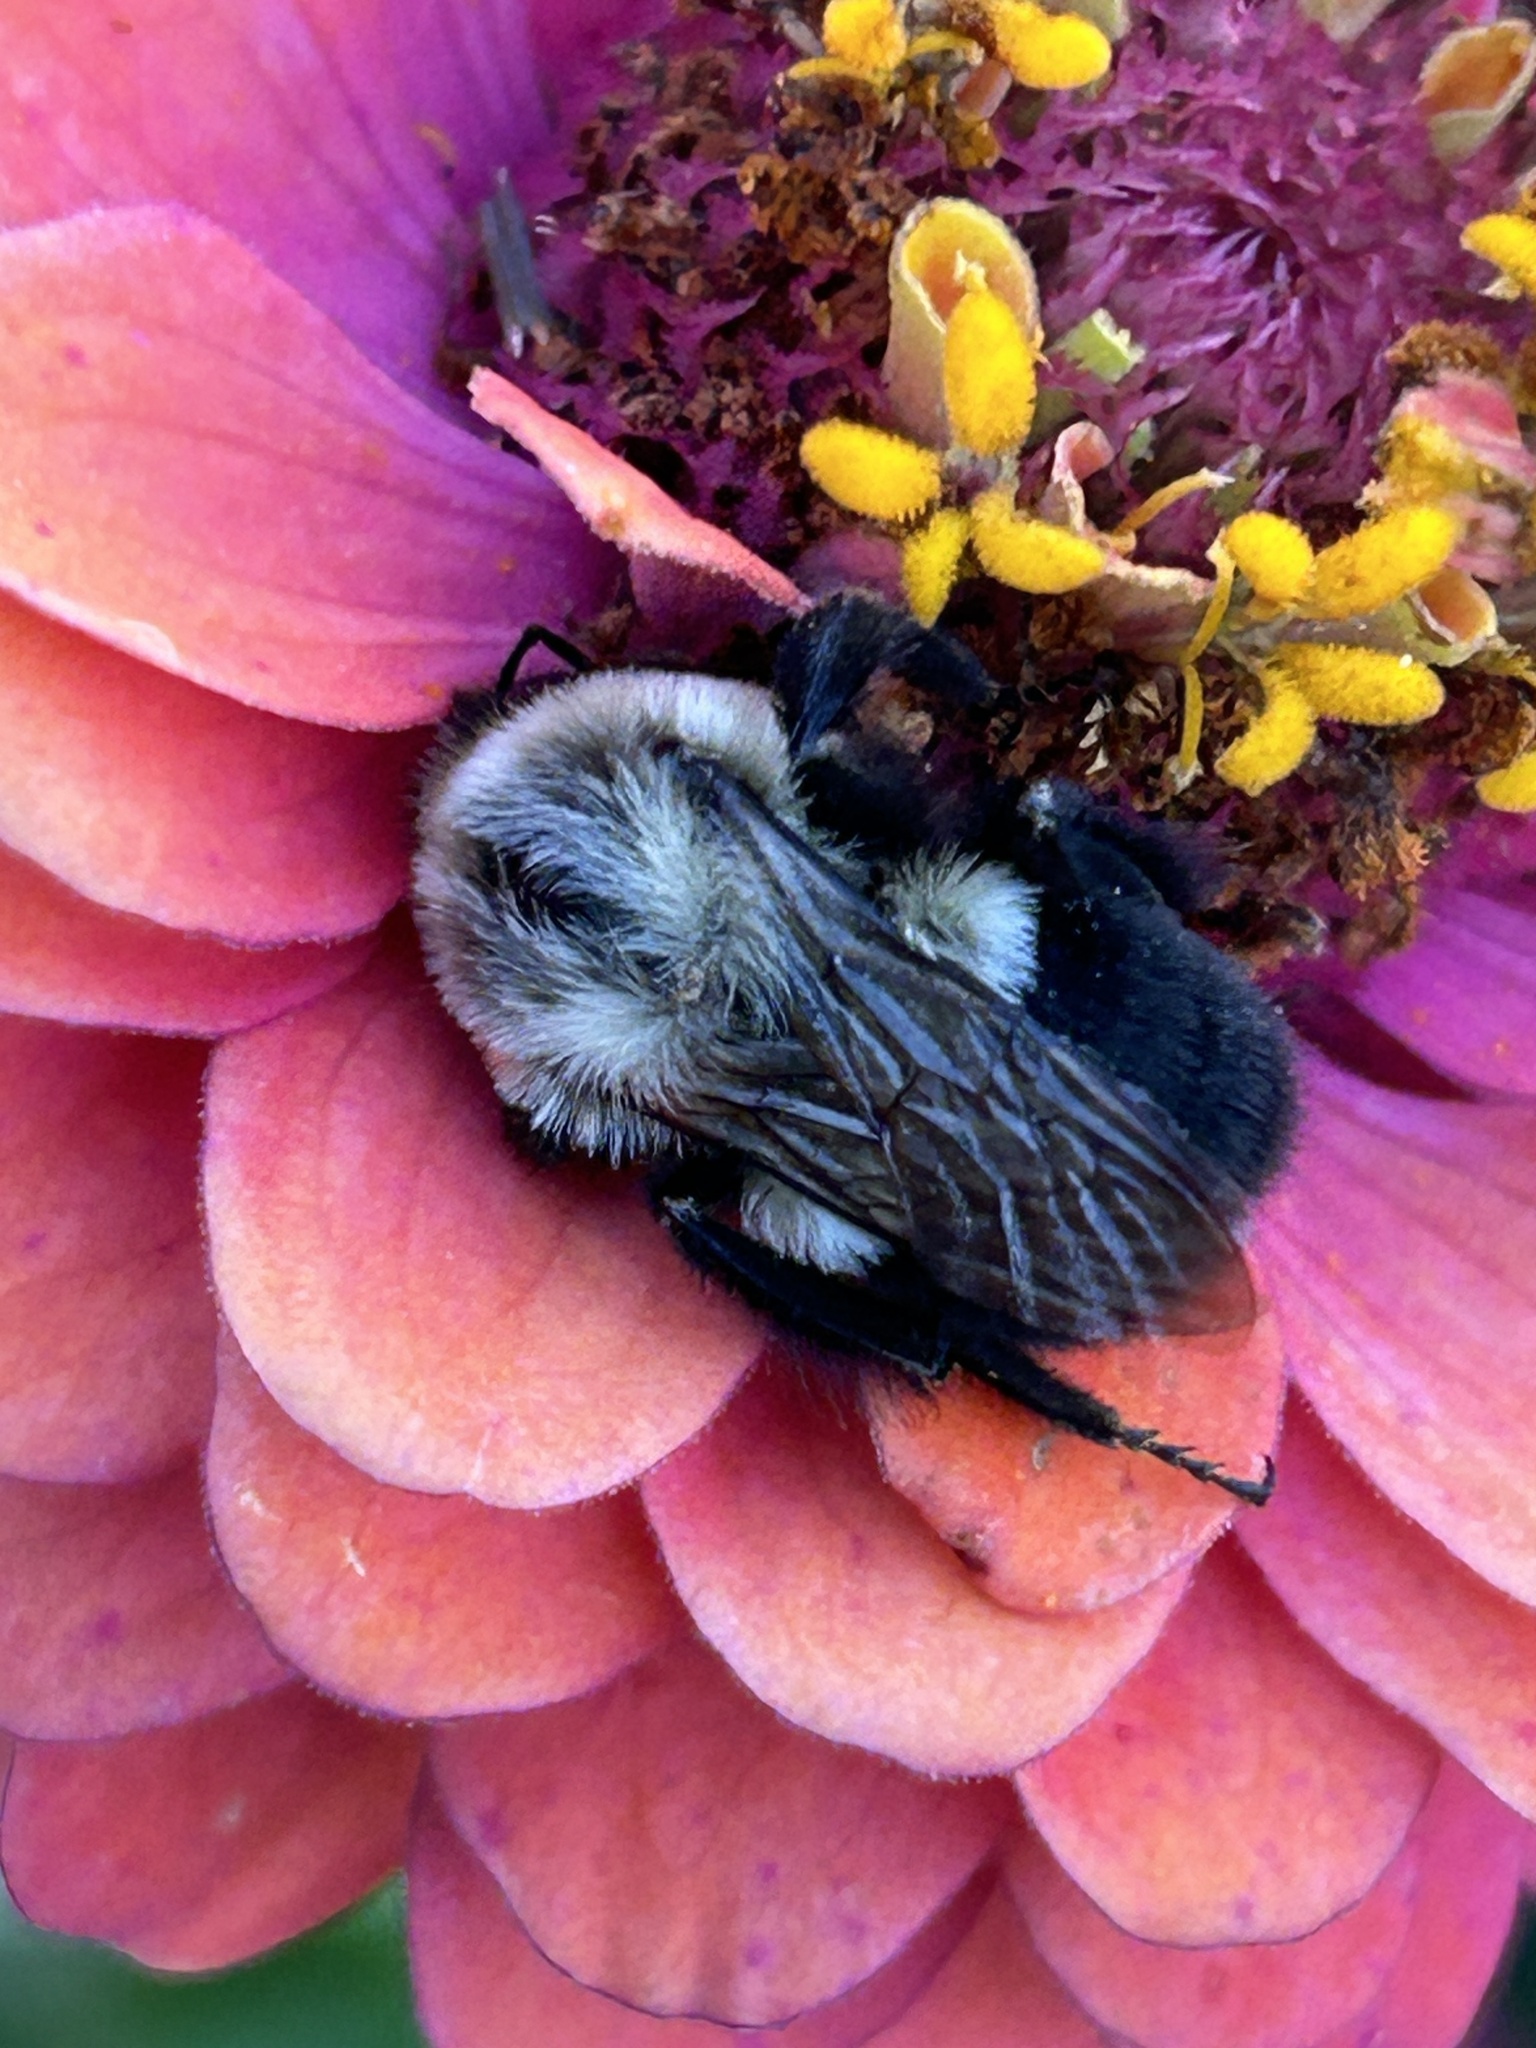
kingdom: Animalia
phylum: Arthropoda
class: Insecta
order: Hymenoptera
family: Apidae
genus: Bombus
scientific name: Bombus impatiens
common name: Common eastern bumble bee
